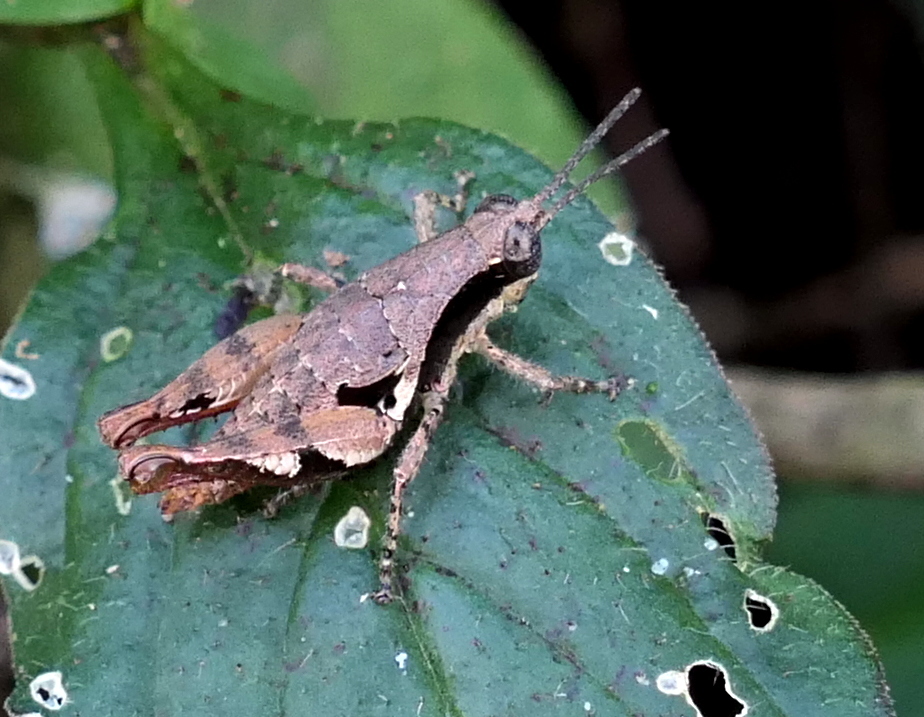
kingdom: Animalia
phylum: Arthropoda
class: Insecta
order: Orthoptera
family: Acrididae
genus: Eujivarus
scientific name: Eujivarus meridionalis
